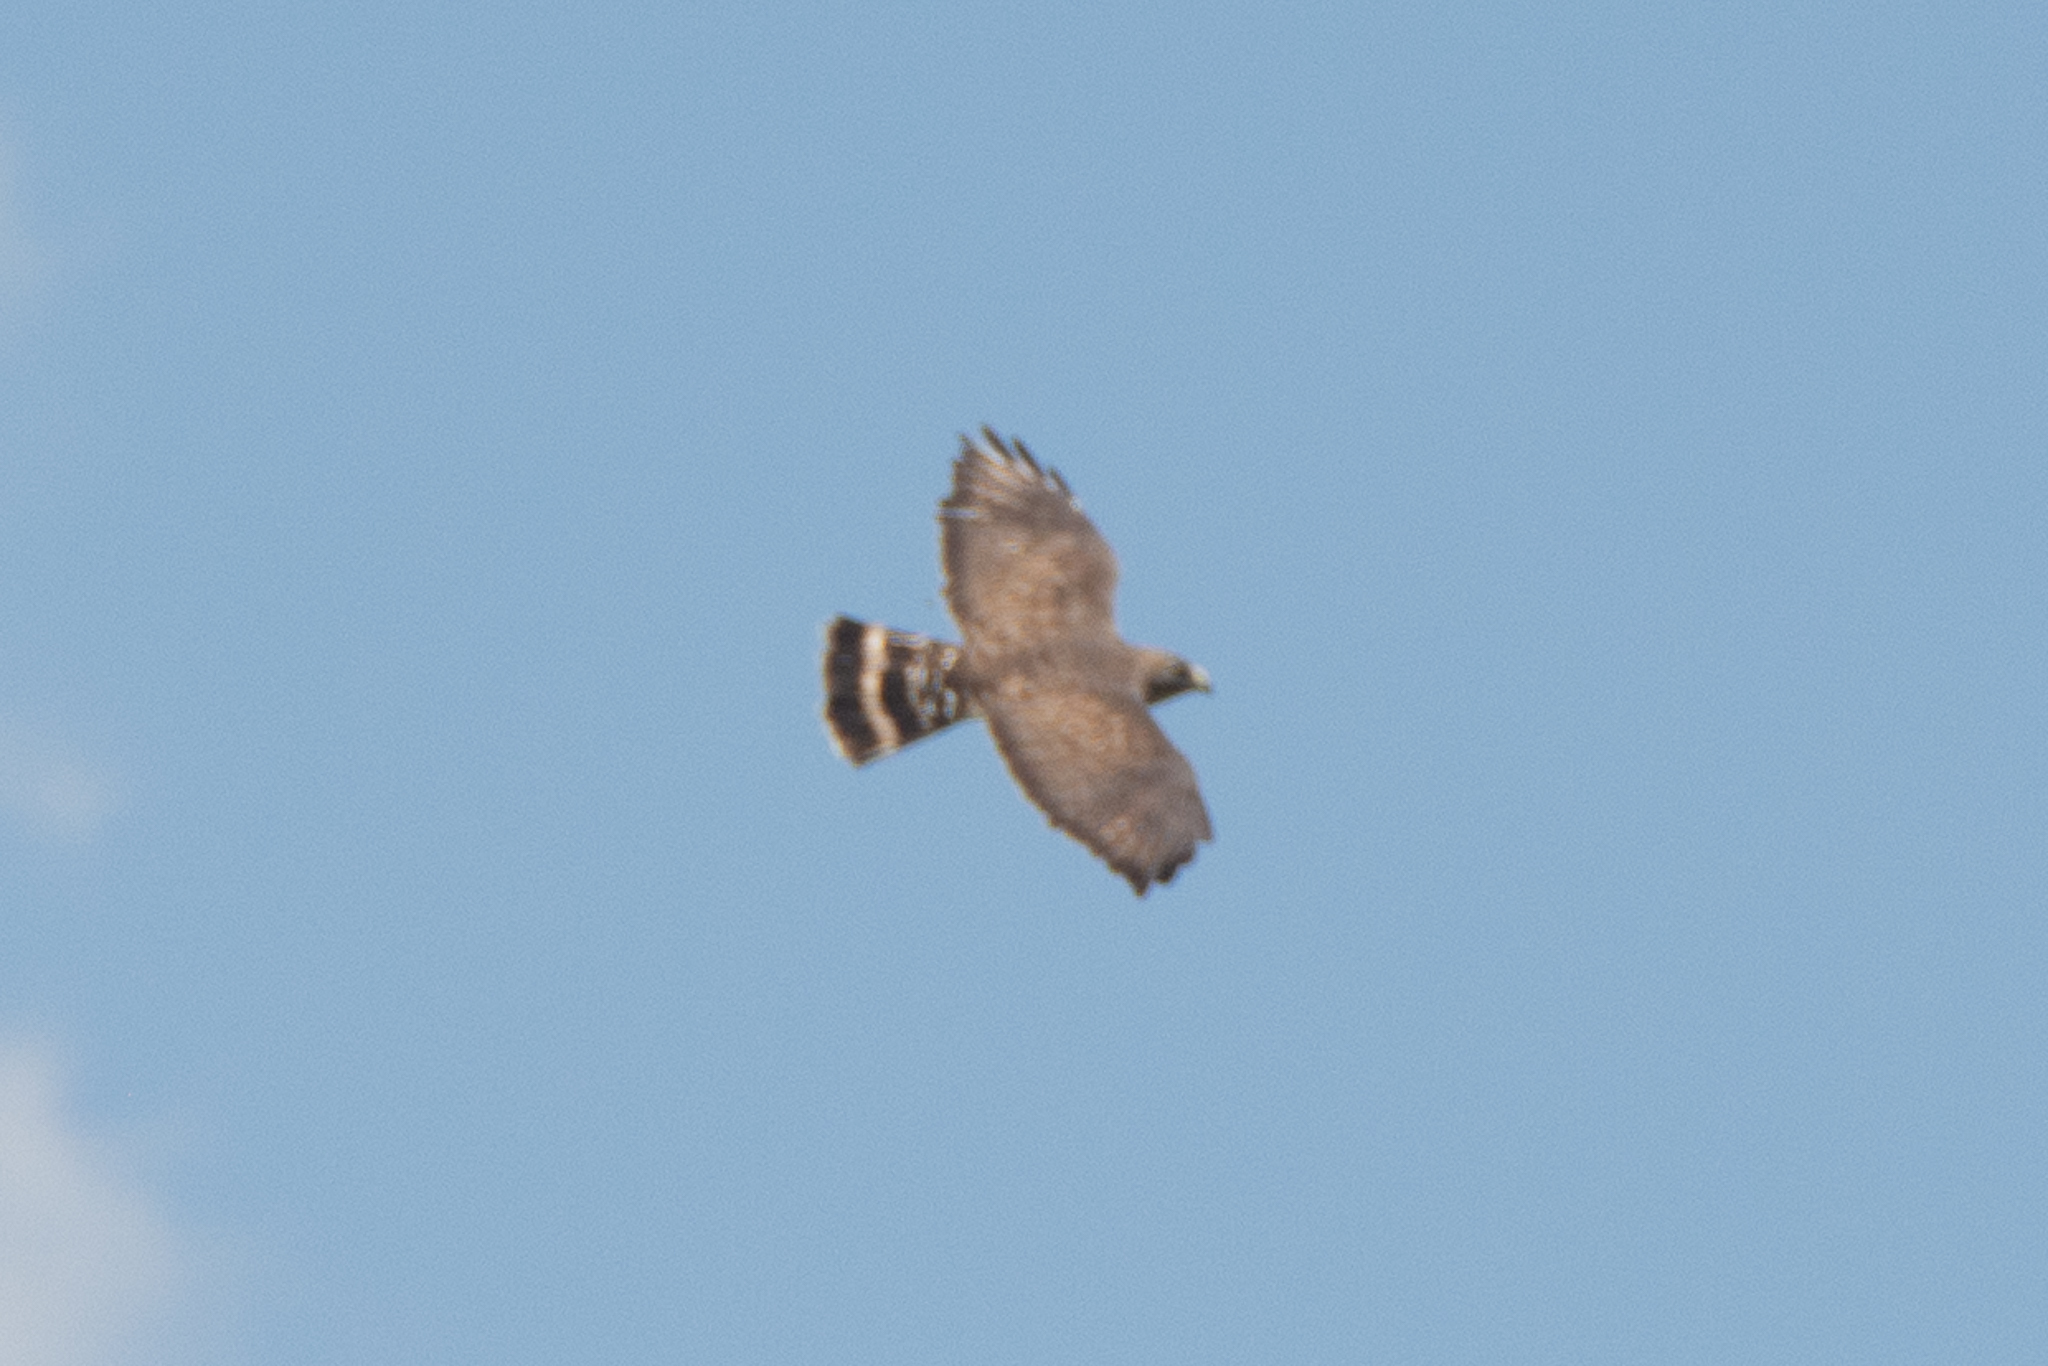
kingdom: Animalia
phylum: Chordata
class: Aves
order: Accipitriformes
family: Accipitridae
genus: Buteo
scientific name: Buteo platypterus
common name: Broad-winged hawk
